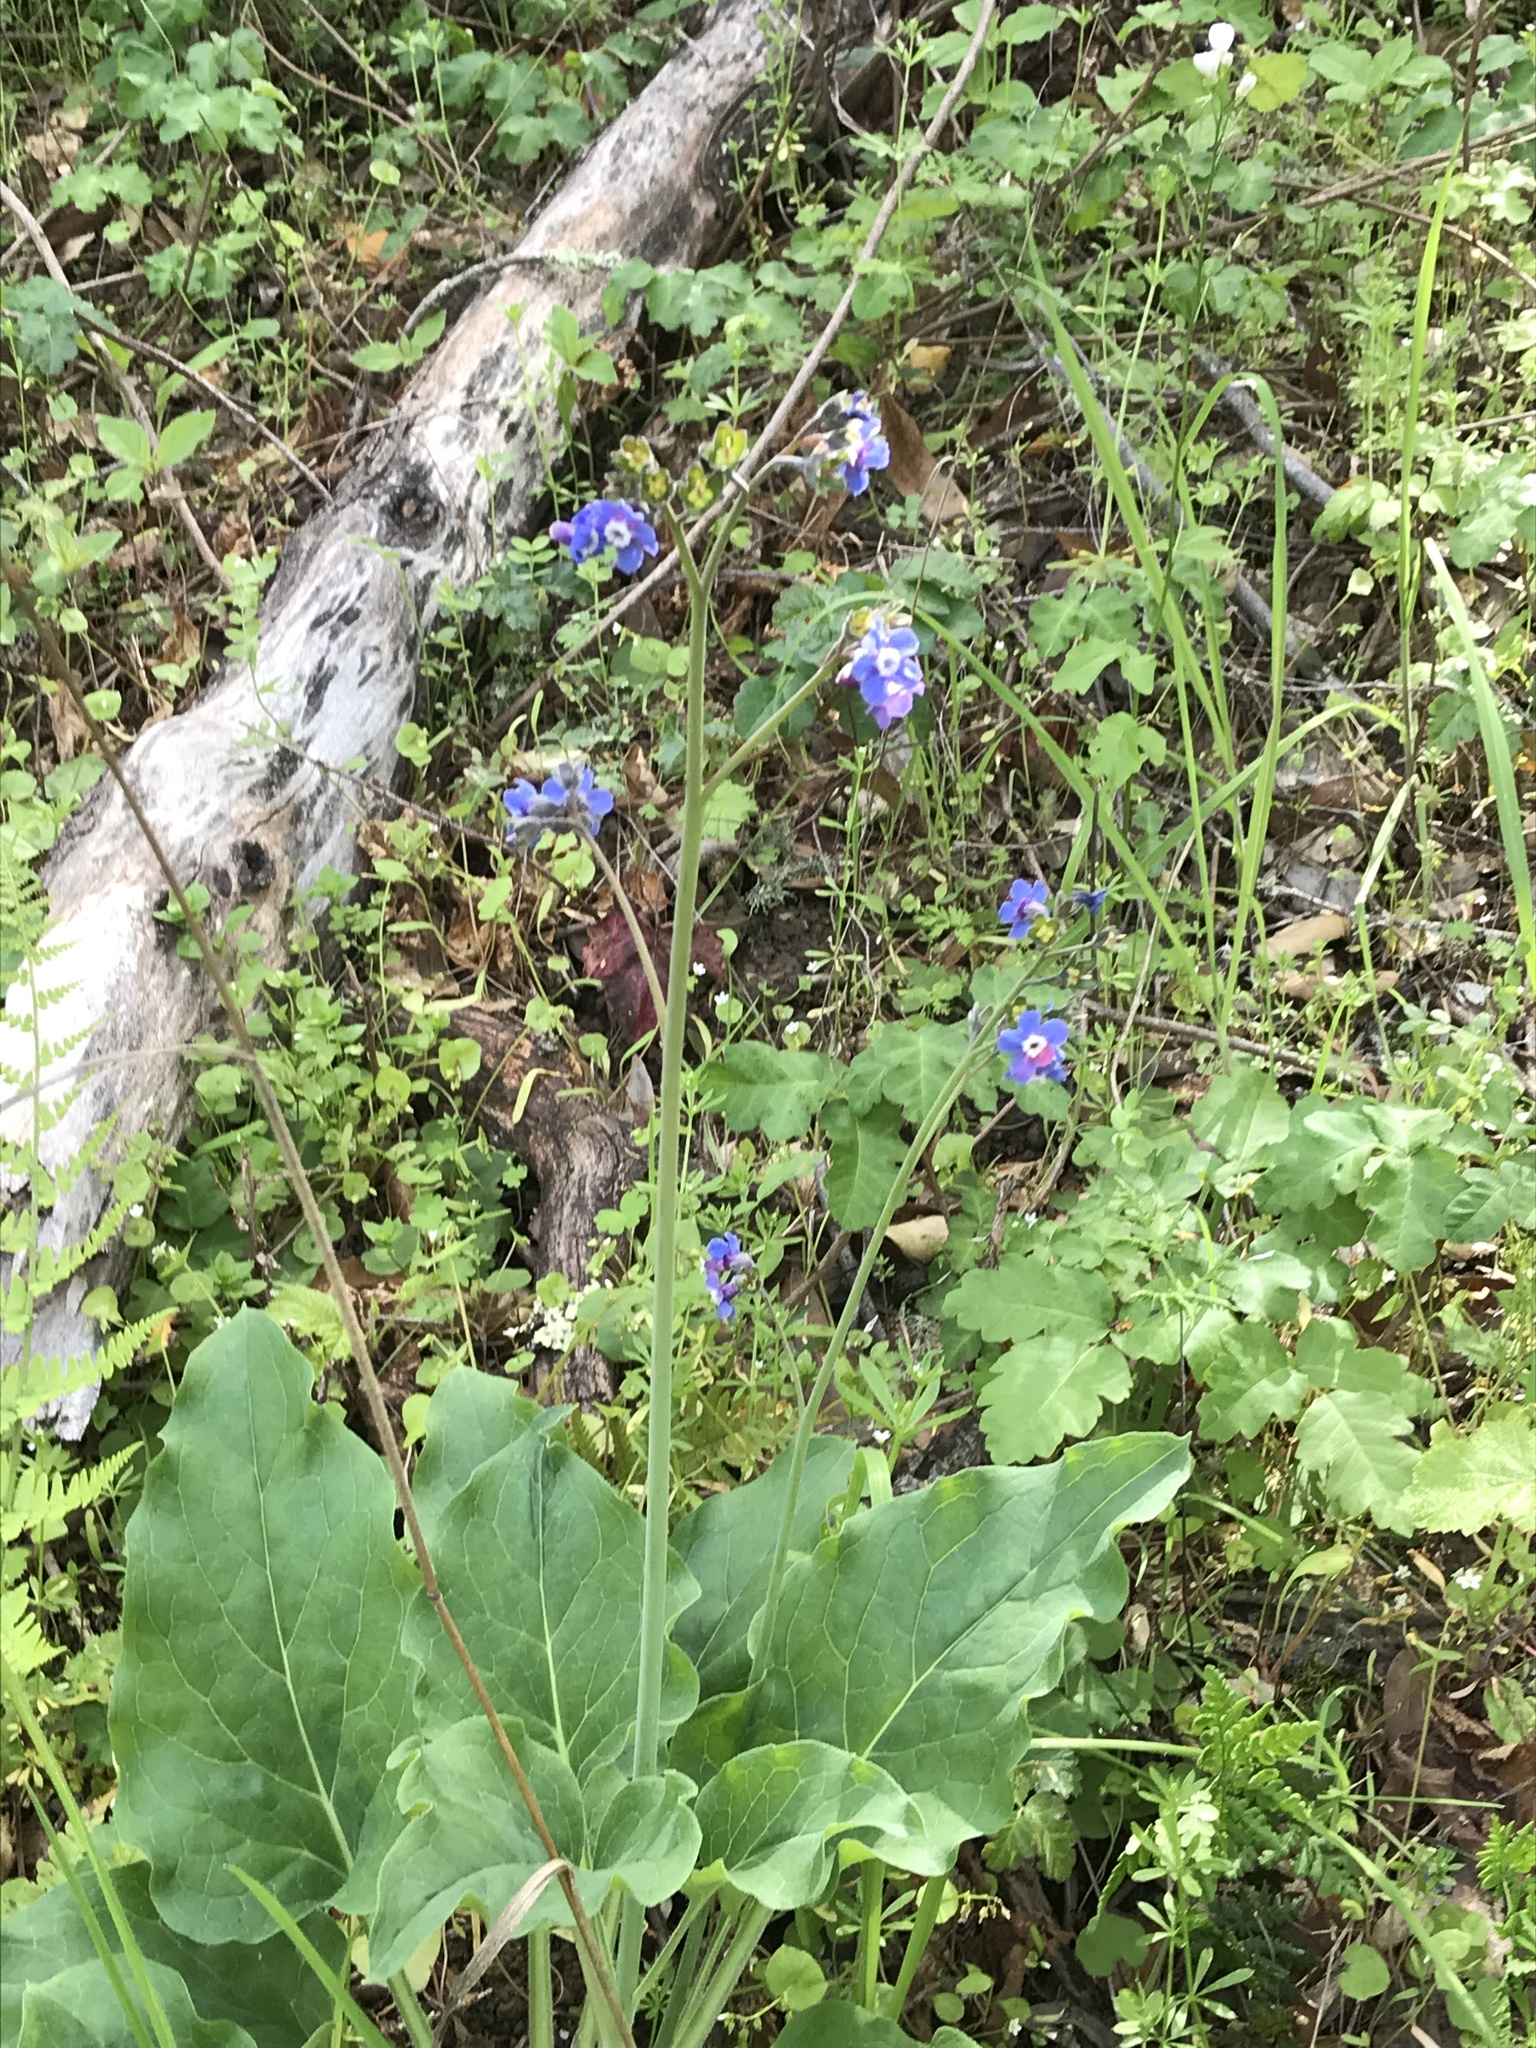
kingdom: Plantae
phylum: Tracheophyta
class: Magnoliopsida
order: Boraginales
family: Boraginaceae
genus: Adelinia
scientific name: Adelinia grande
